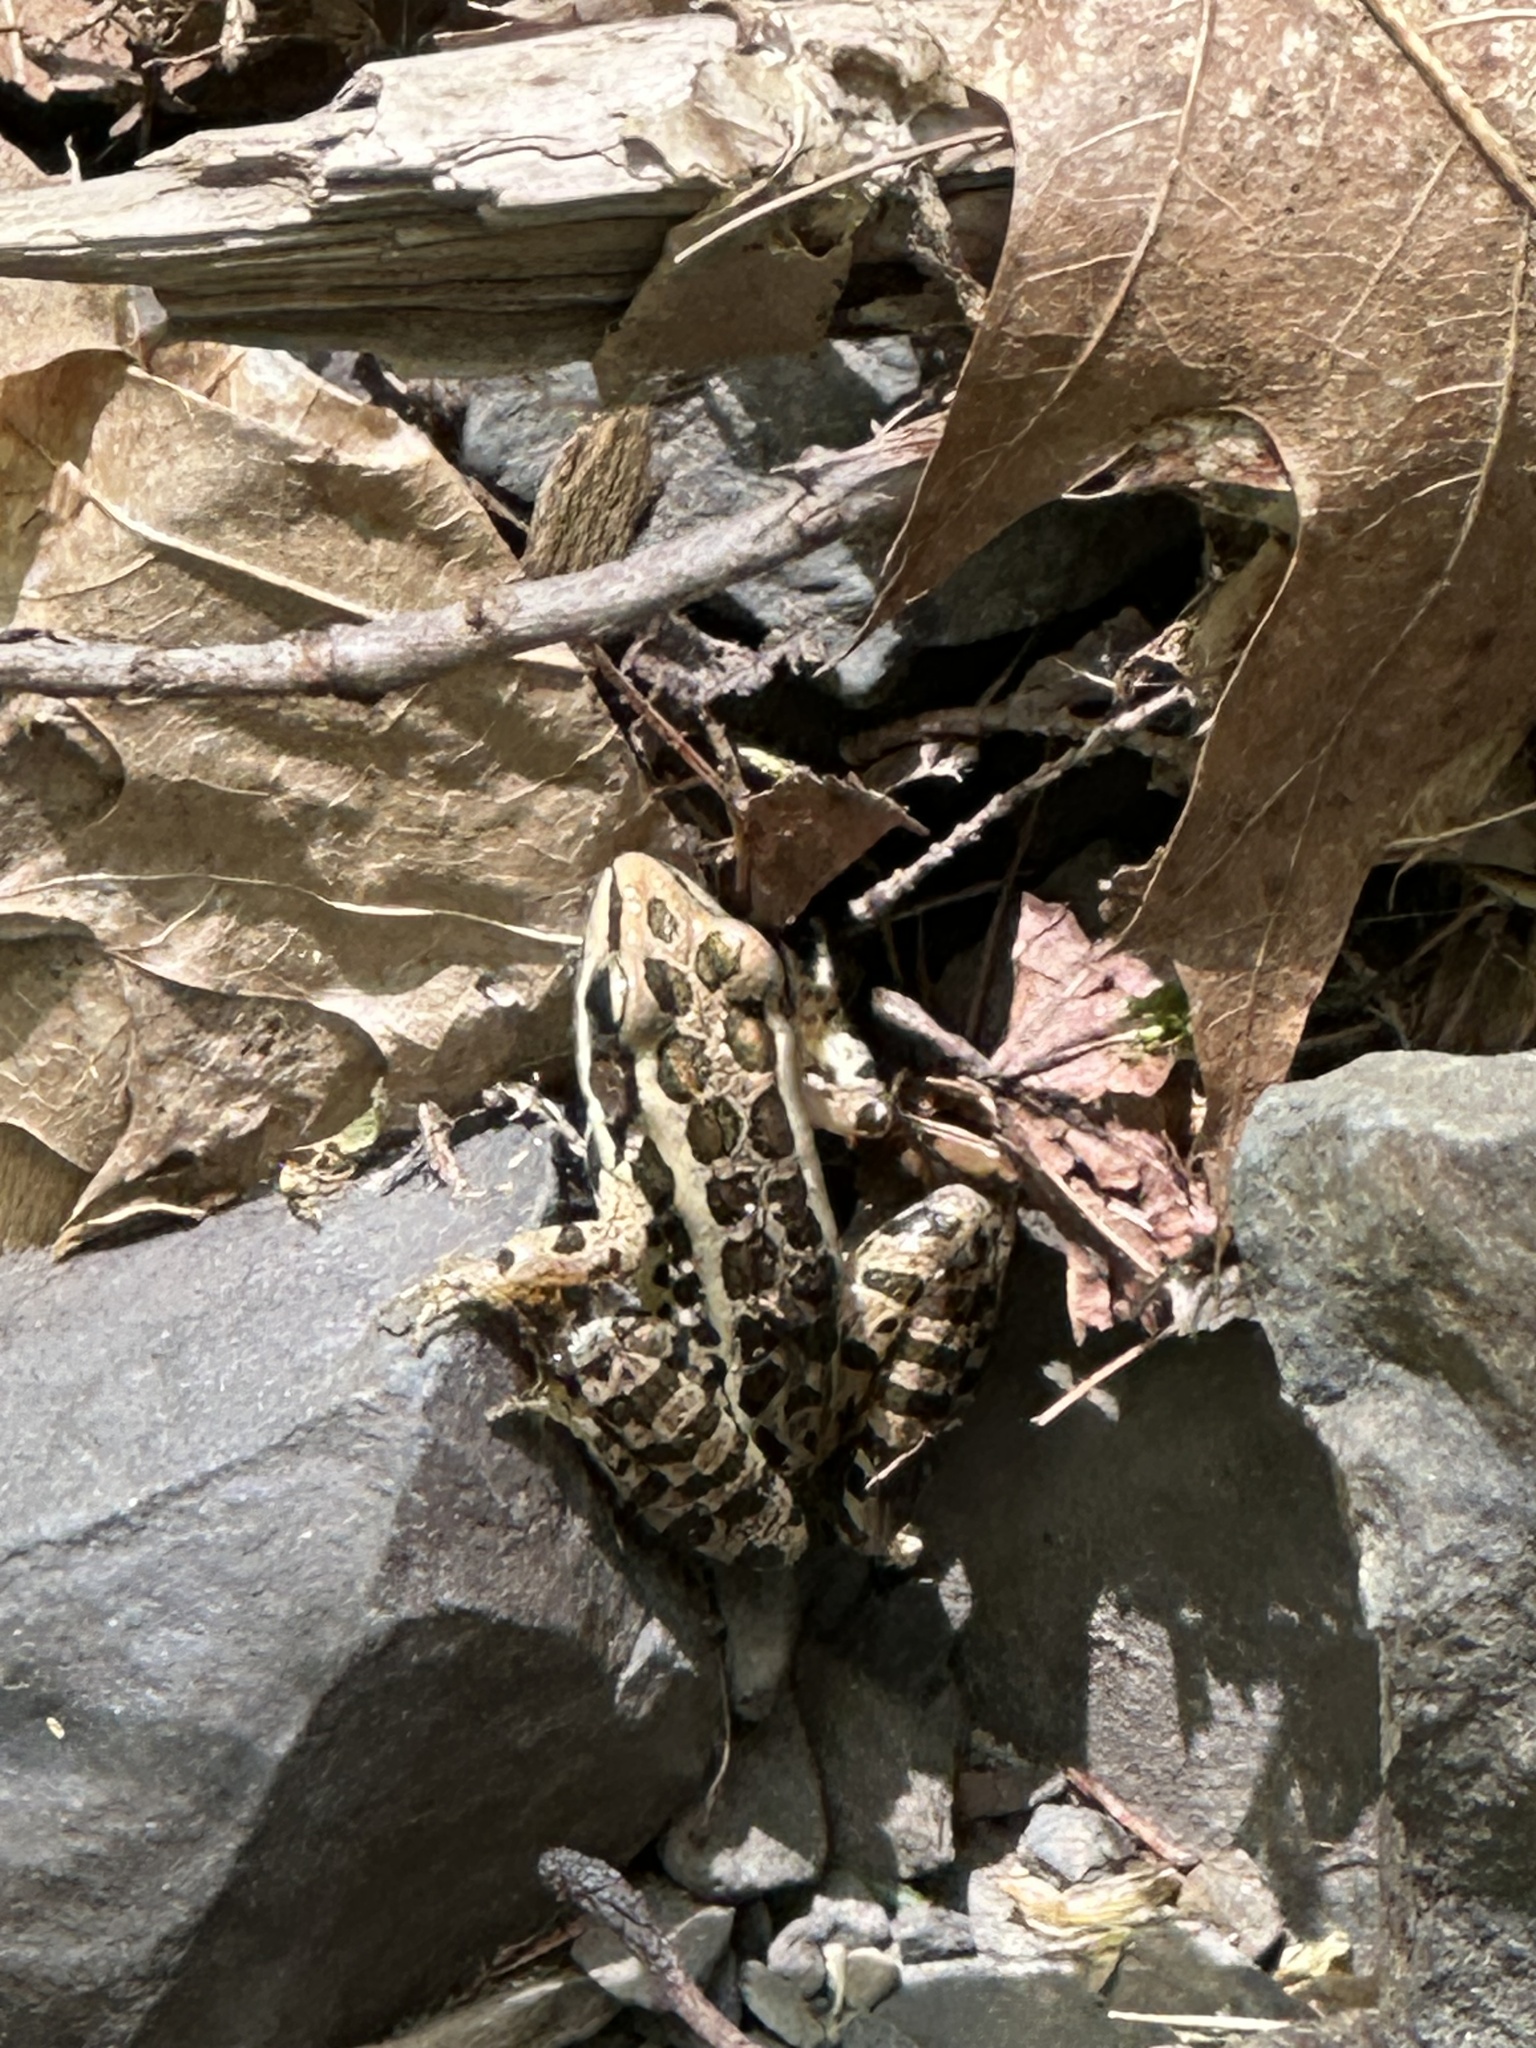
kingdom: Animalia
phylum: Chordata
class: Amphibia
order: Anura
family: Ranidae
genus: Lithobates
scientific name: Lithobates palustris
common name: Pickerel frog
